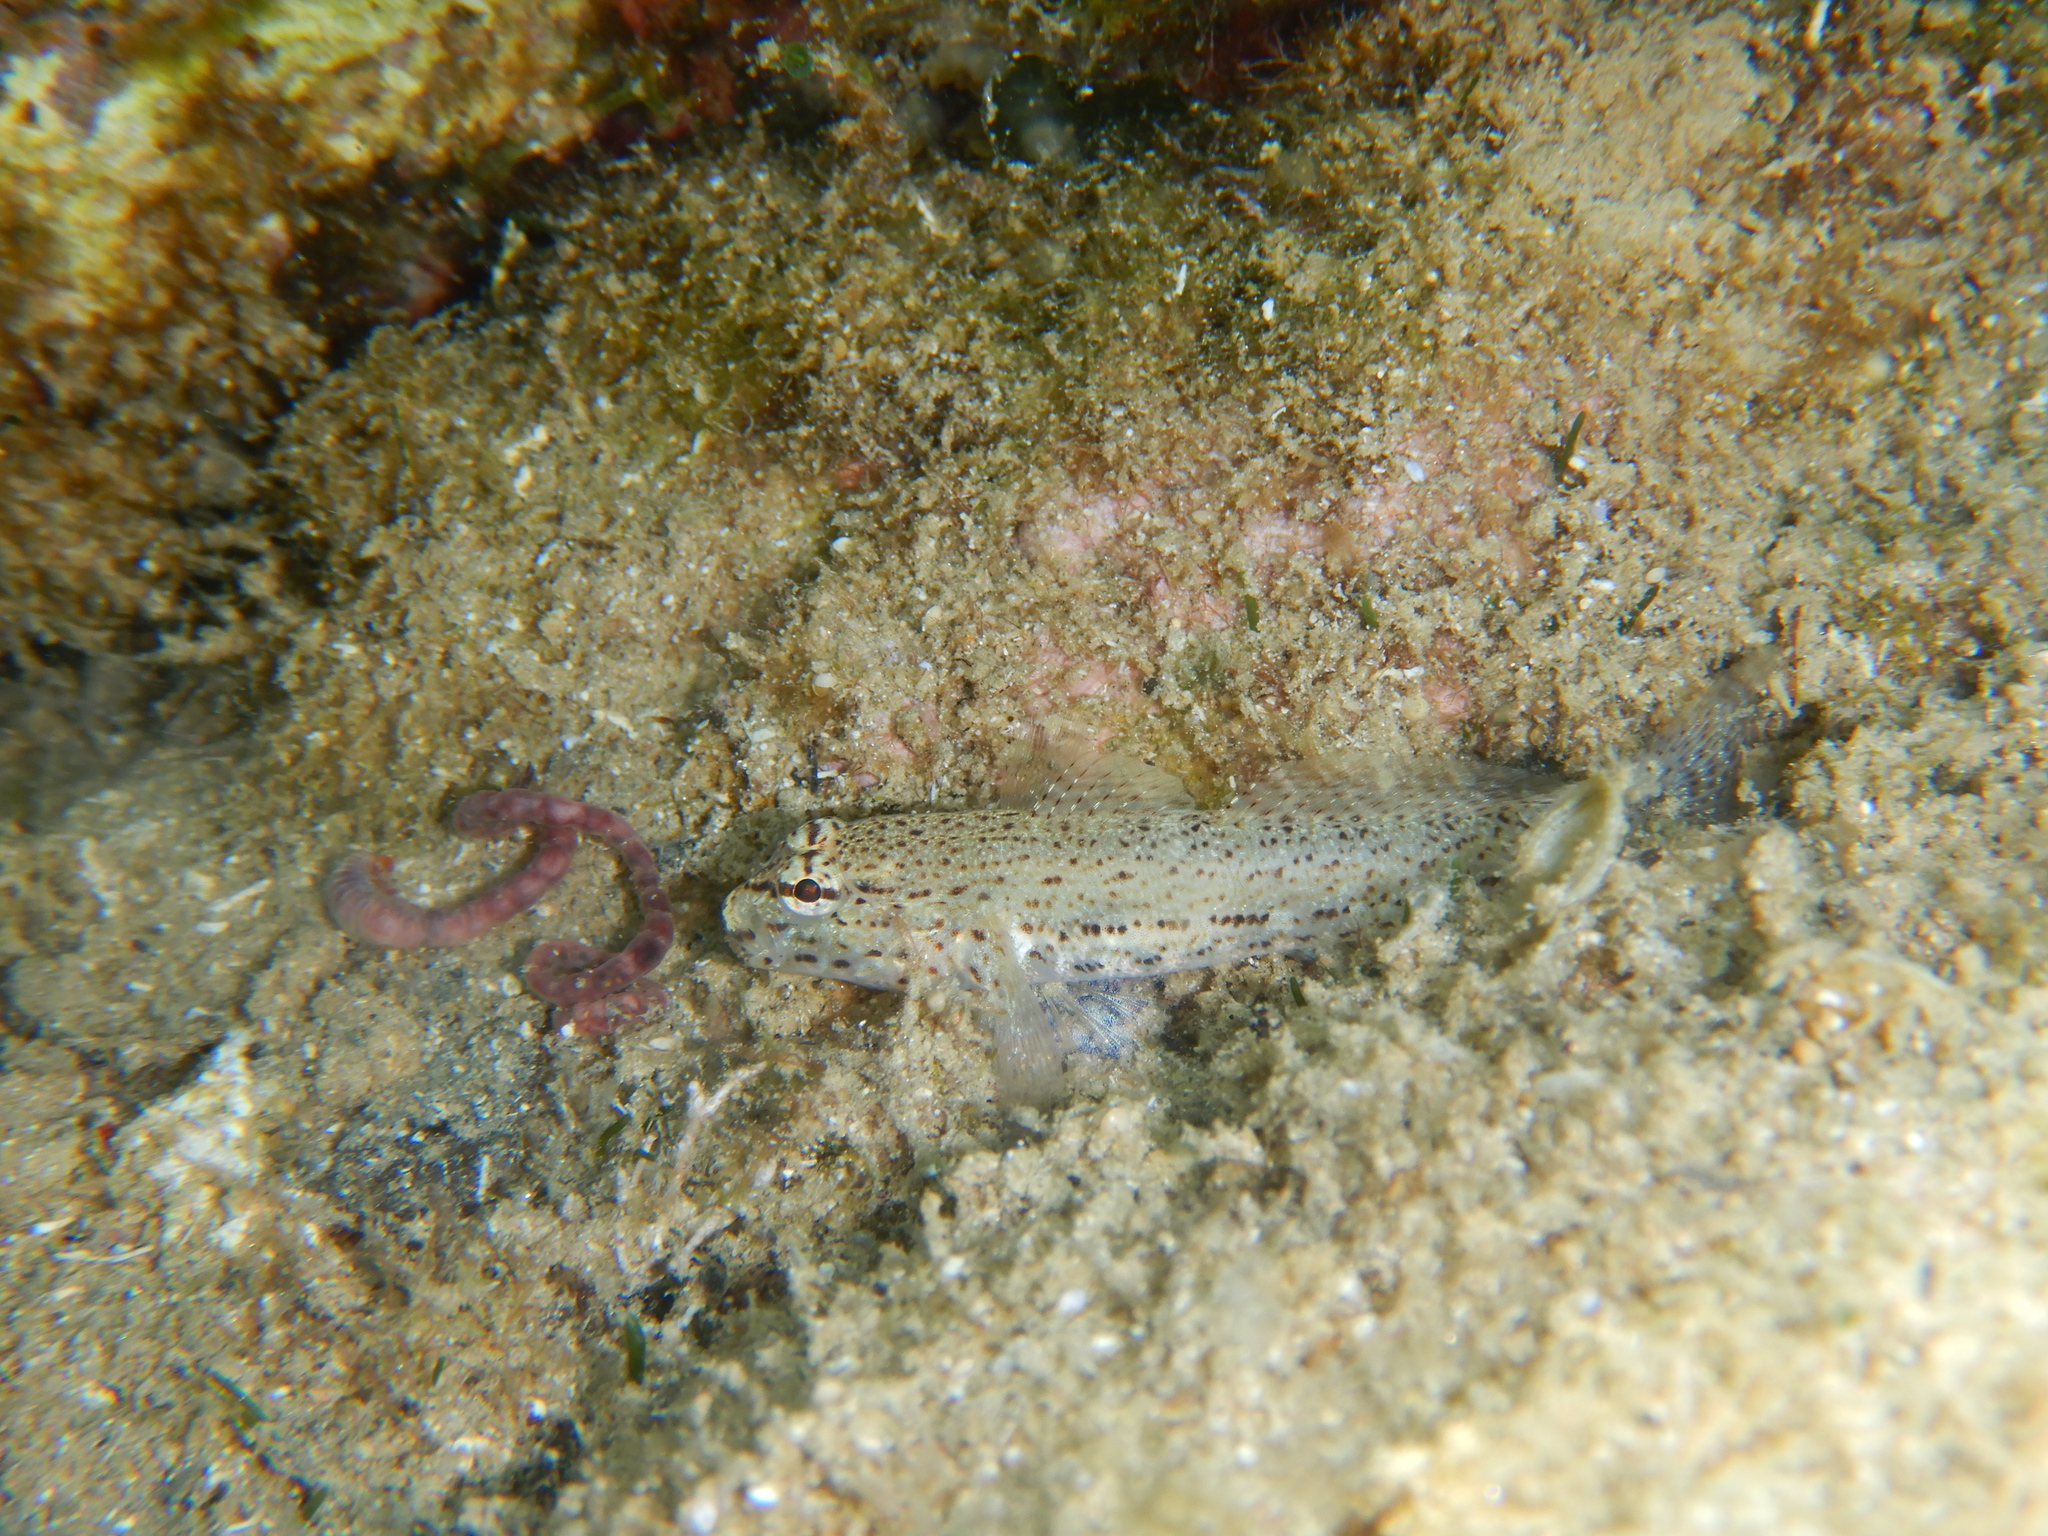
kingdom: Animalia
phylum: Chordata
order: Perciformes
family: Gobiidae
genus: Gobius
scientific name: Gobius incognitus
